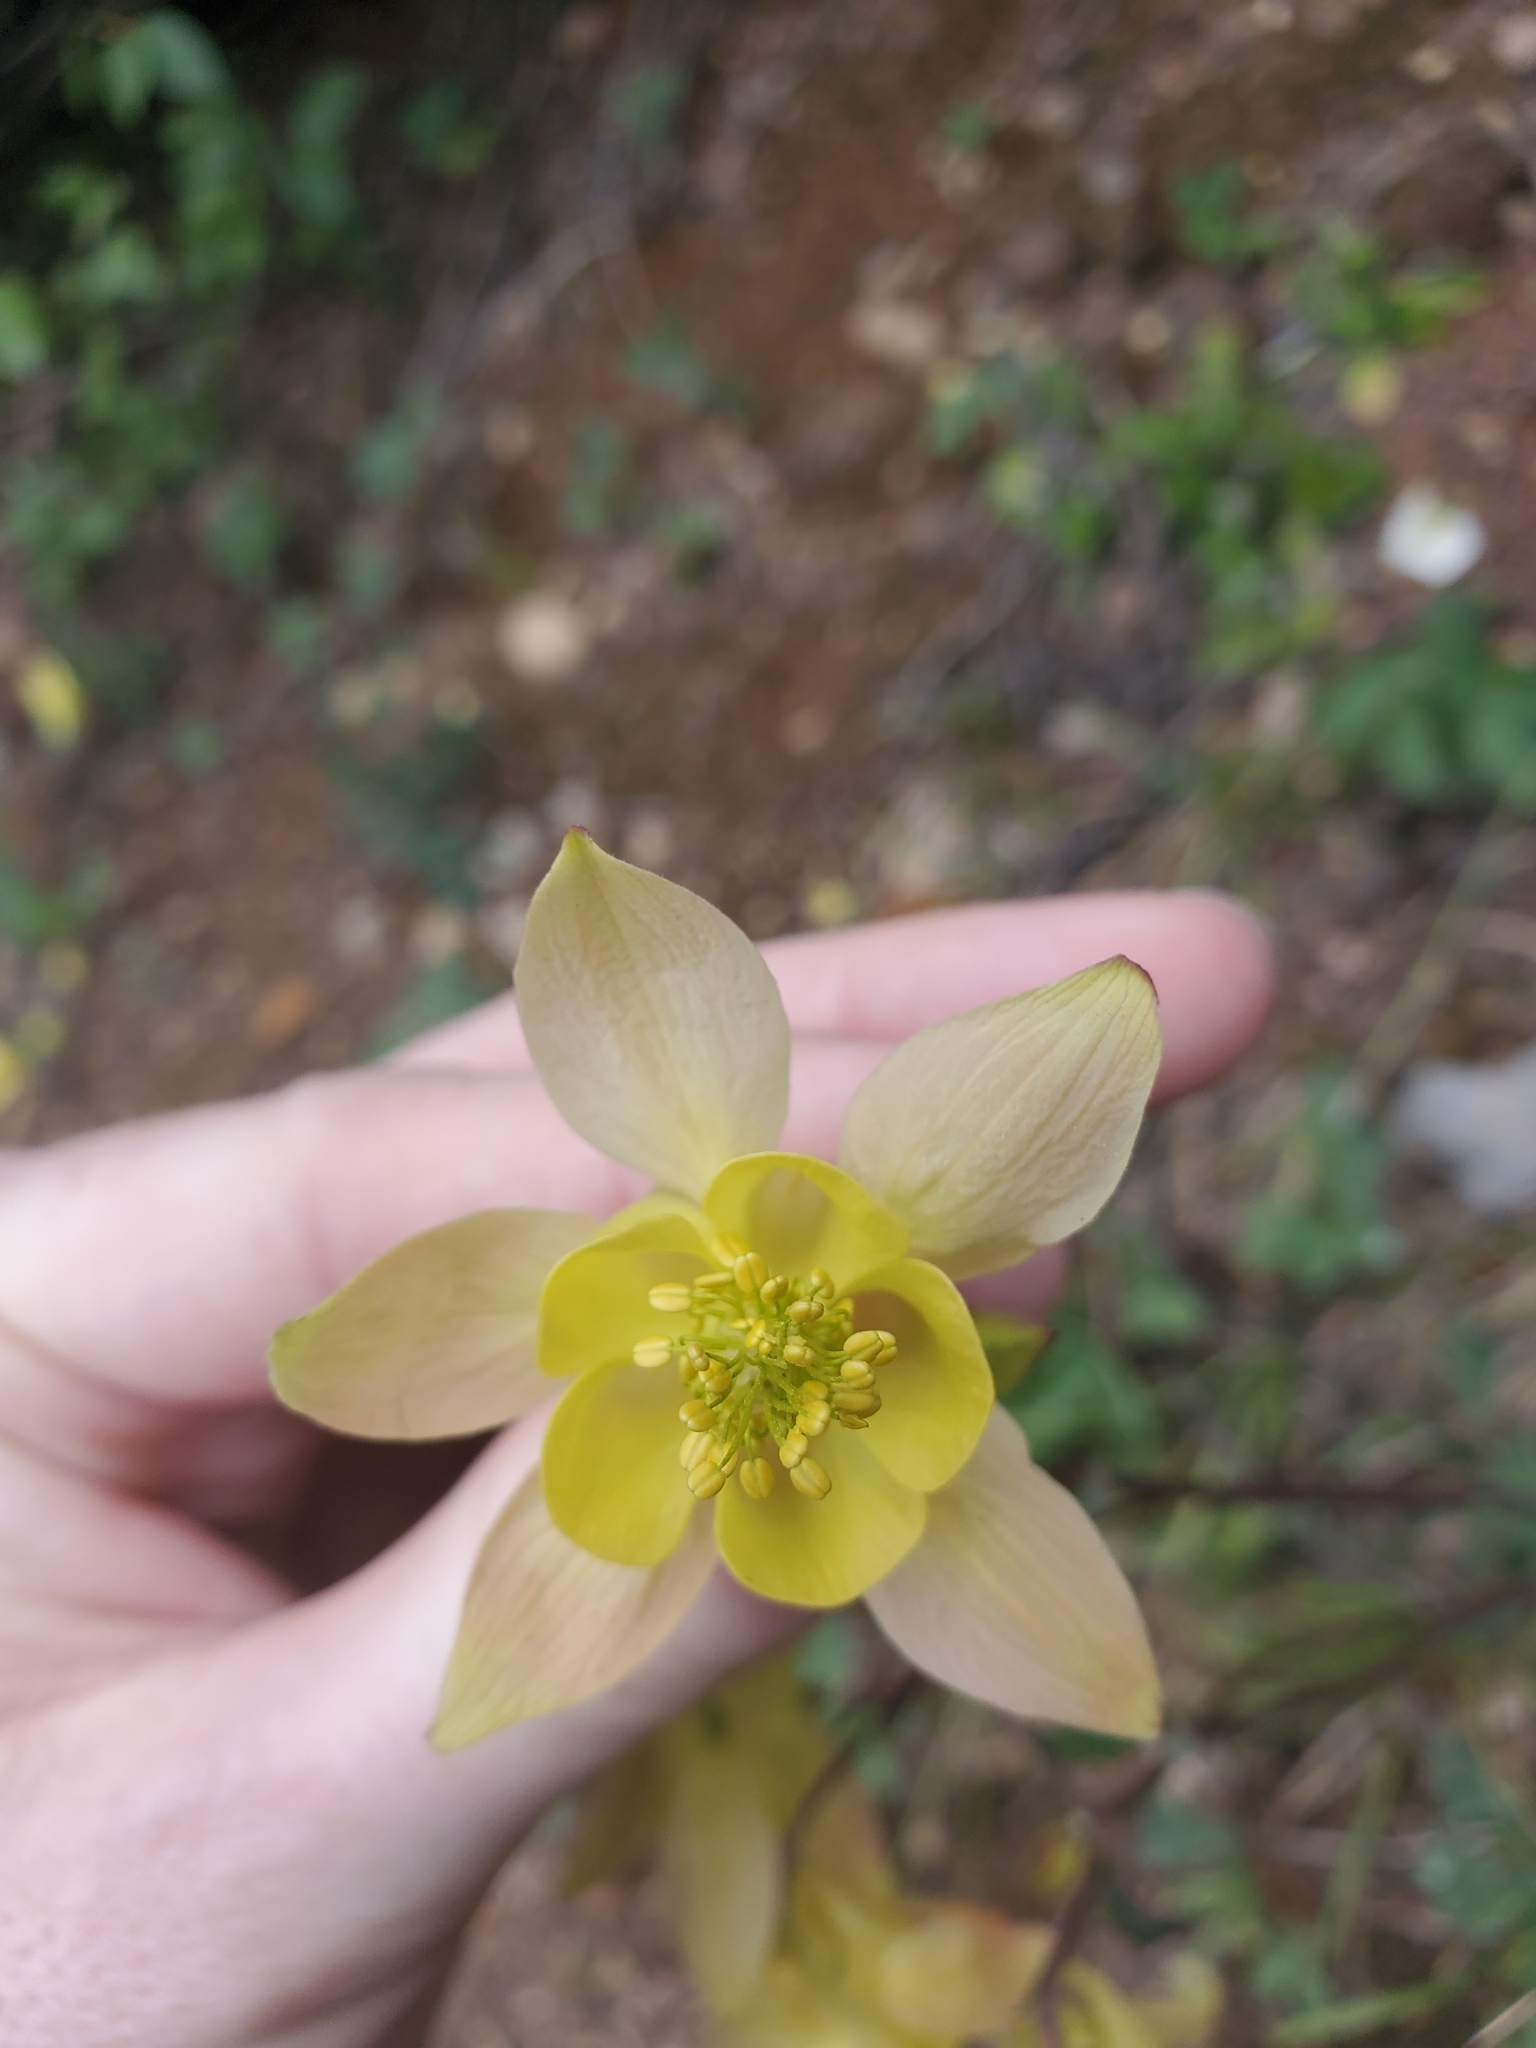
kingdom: Plantae
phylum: Tracheophyta
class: Magnoliopsida
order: Ranunculales
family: Ranunculaceae
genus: Aquilegia
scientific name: Aquilegia flavescens
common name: Yellow columbine
